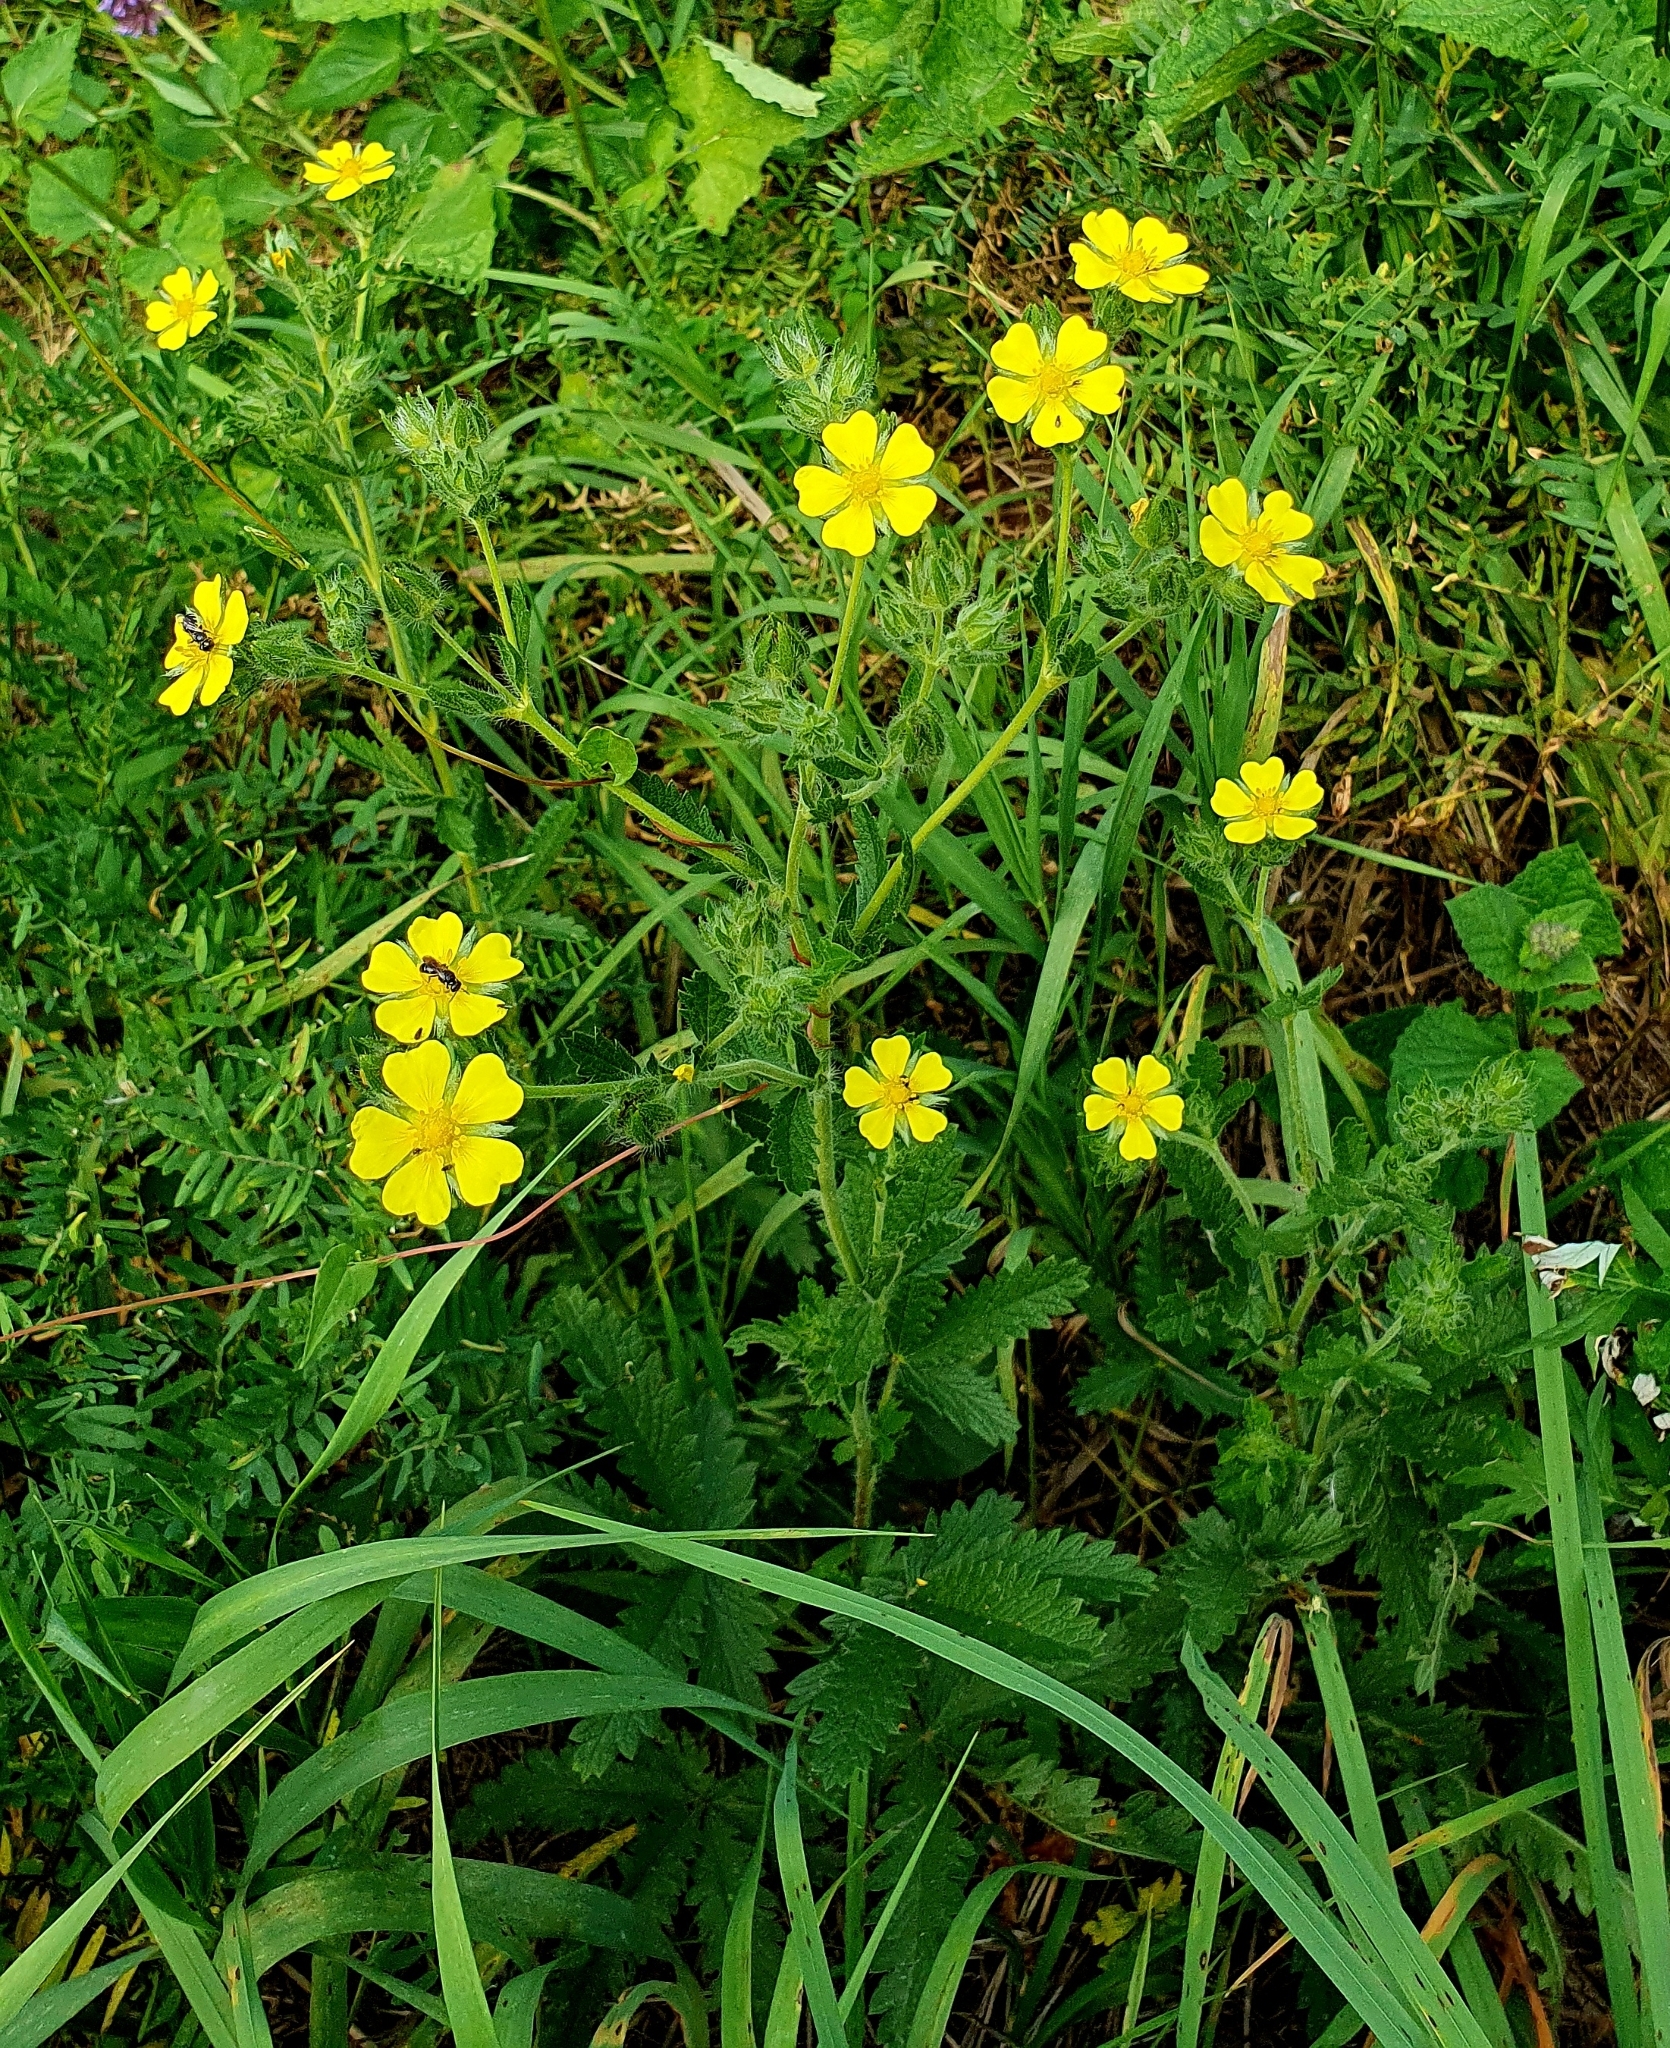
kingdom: Plantae
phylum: Tracheophyta
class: Magnoliopsida
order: Rosales
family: Rosaceae
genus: Potentilla
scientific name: Potentilla recta
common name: Sulphur cinquefoil
